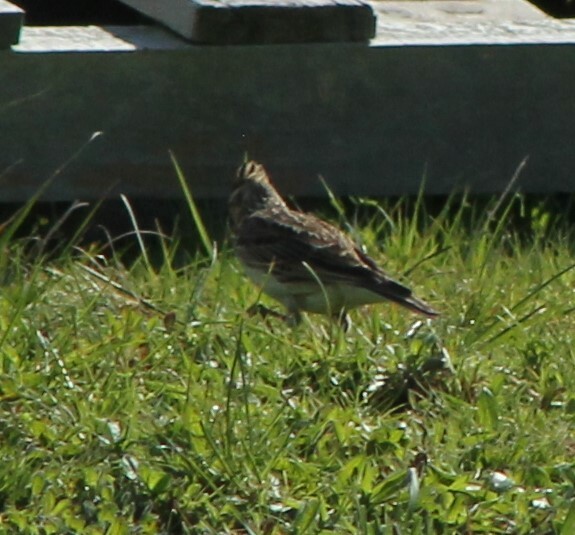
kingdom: Animalia
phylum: Chordata
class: Aves
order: Passeriformes
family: Alaudidae
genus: Alauda
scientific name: Alauda arvensis
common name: Eurasian skylark
